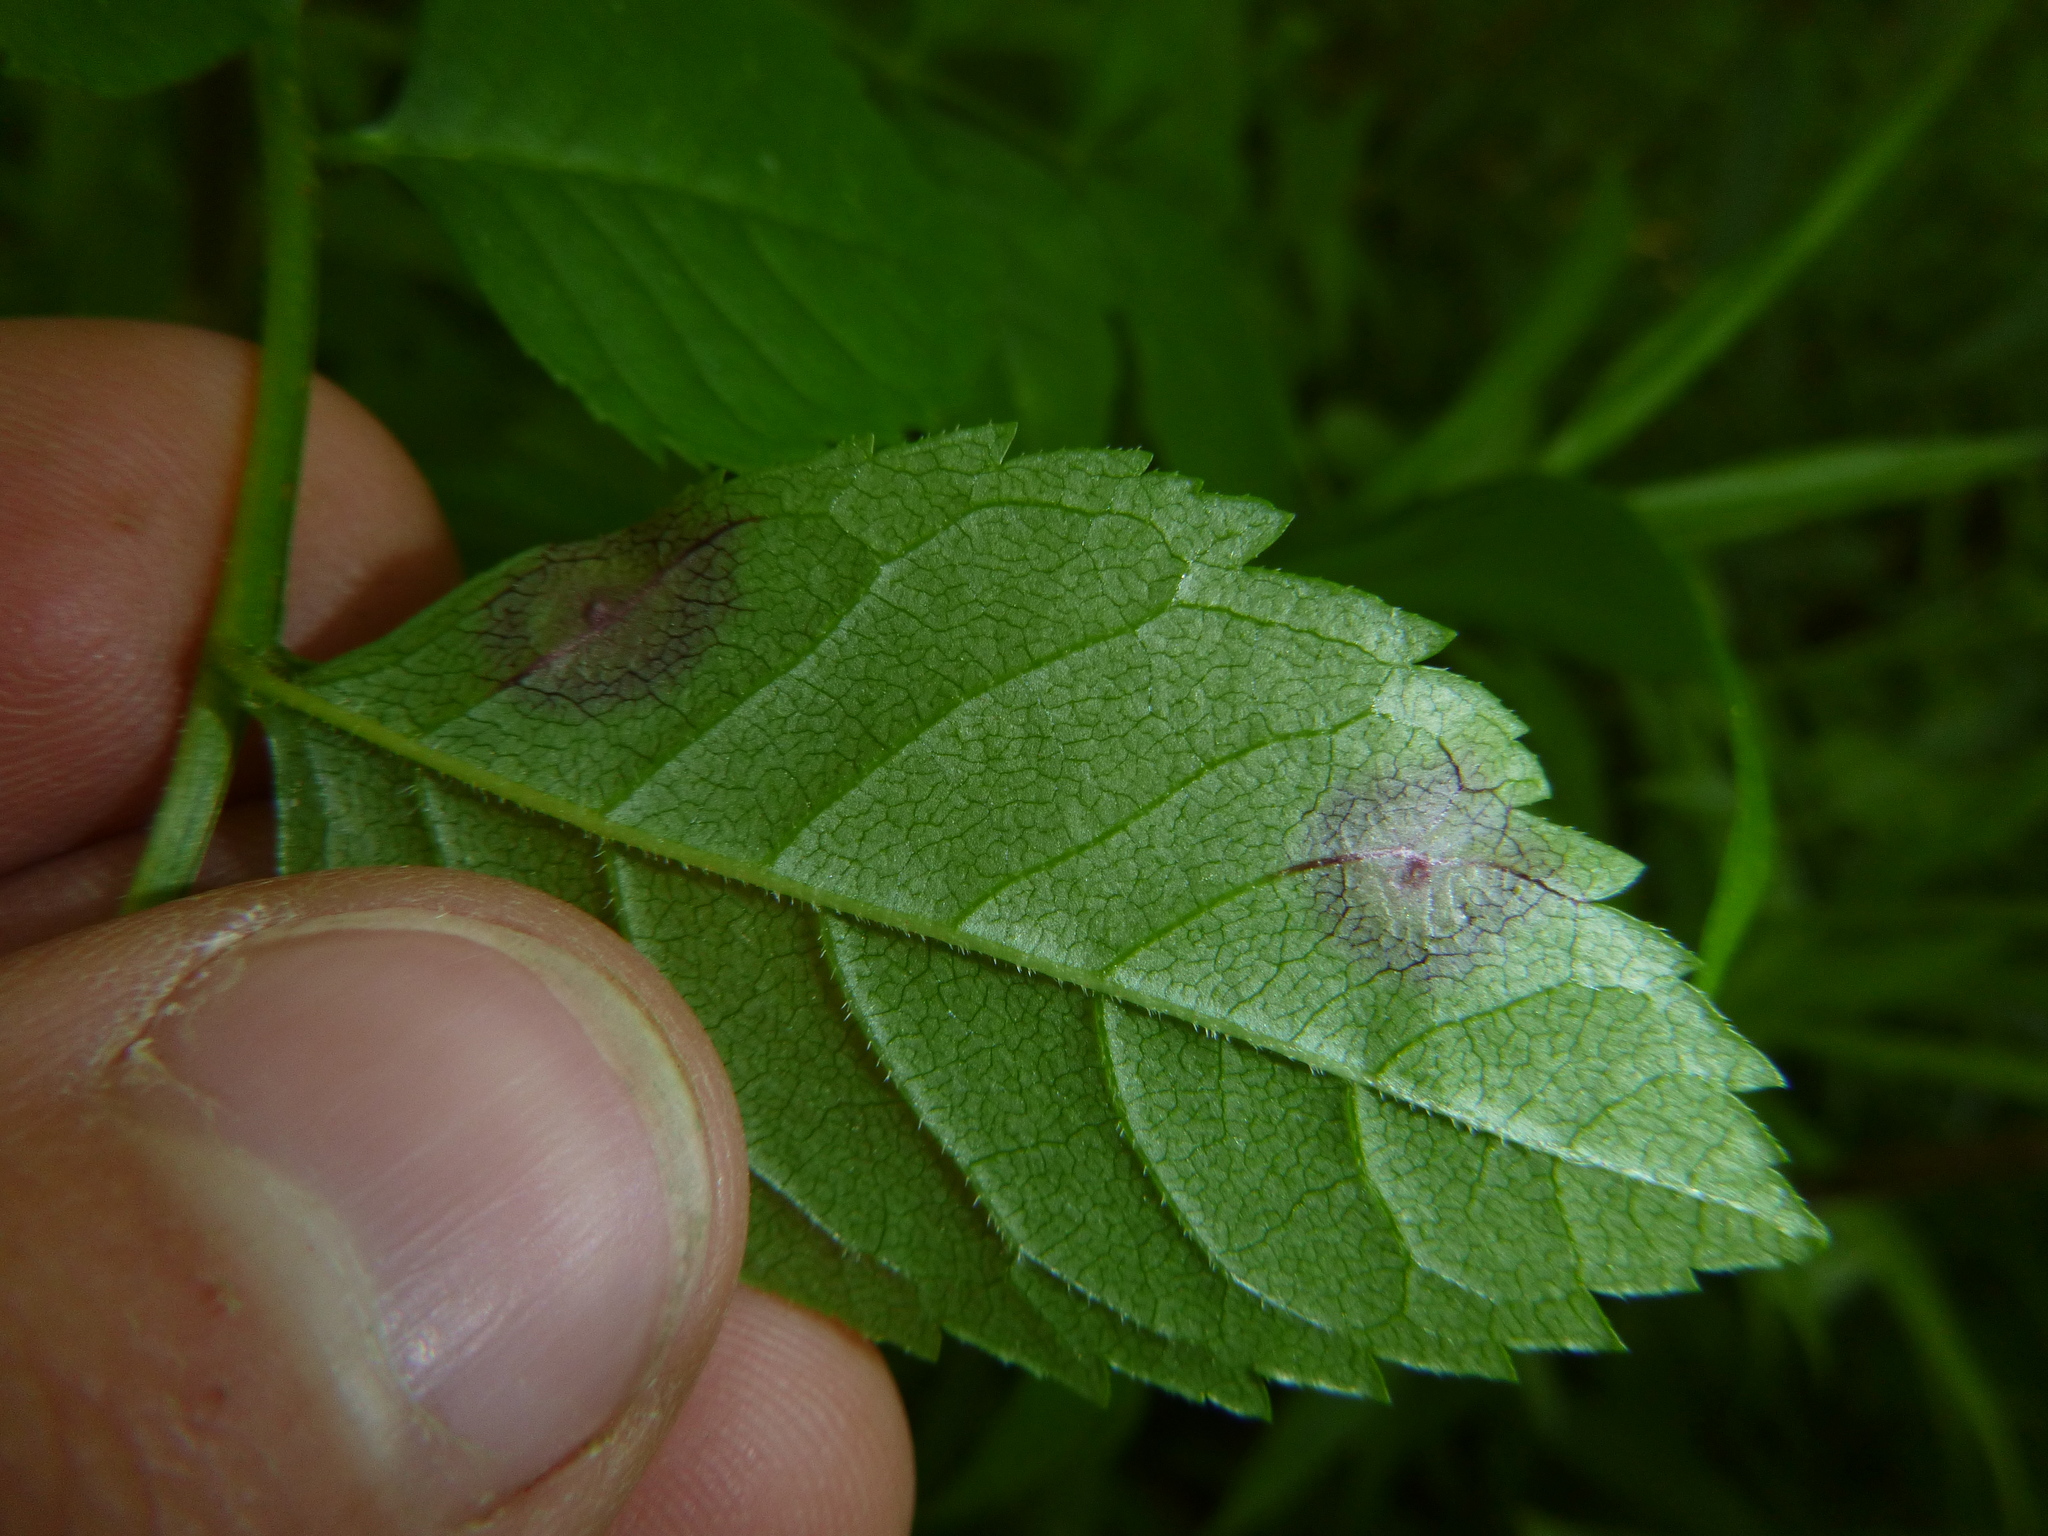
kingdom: Plantae
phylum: Tracheophyta
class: Magnoliopsida
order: Lamiales
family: Oleaceae
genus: Fraxinus
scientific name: Fraxinus excelsior
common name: European ash
